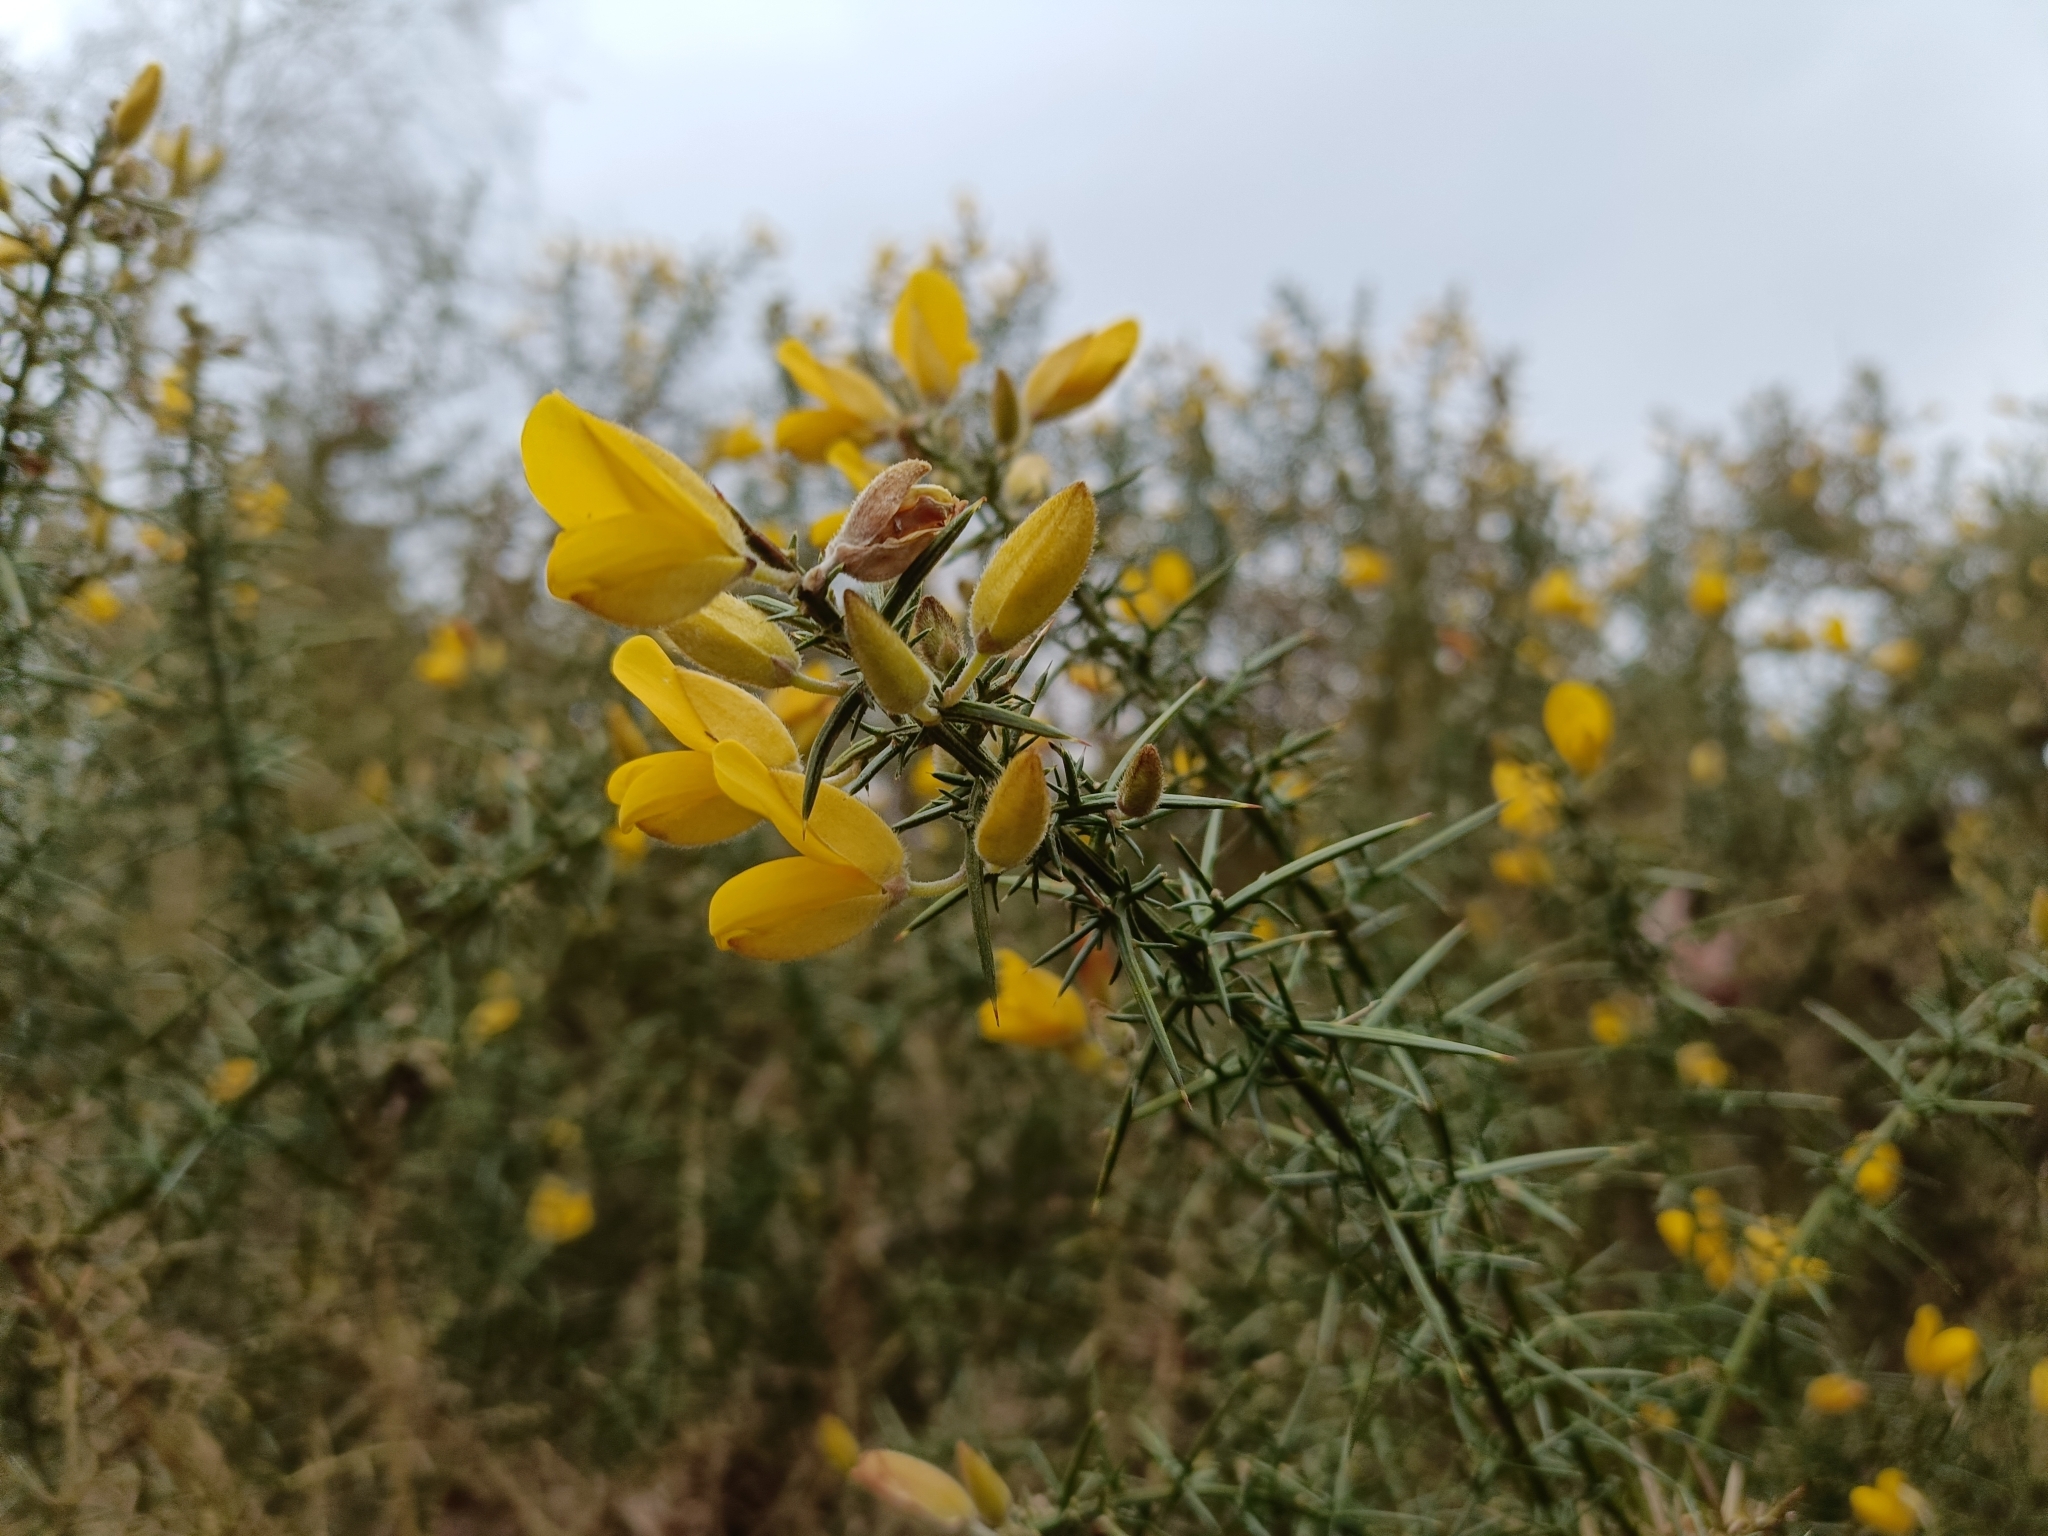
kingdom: Plantae
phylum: Tracheophyta
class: Magnoliopsida
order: Fabales
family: Fabaceae
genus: Ulex
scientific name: Ulex europaeus
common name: Common gorse
